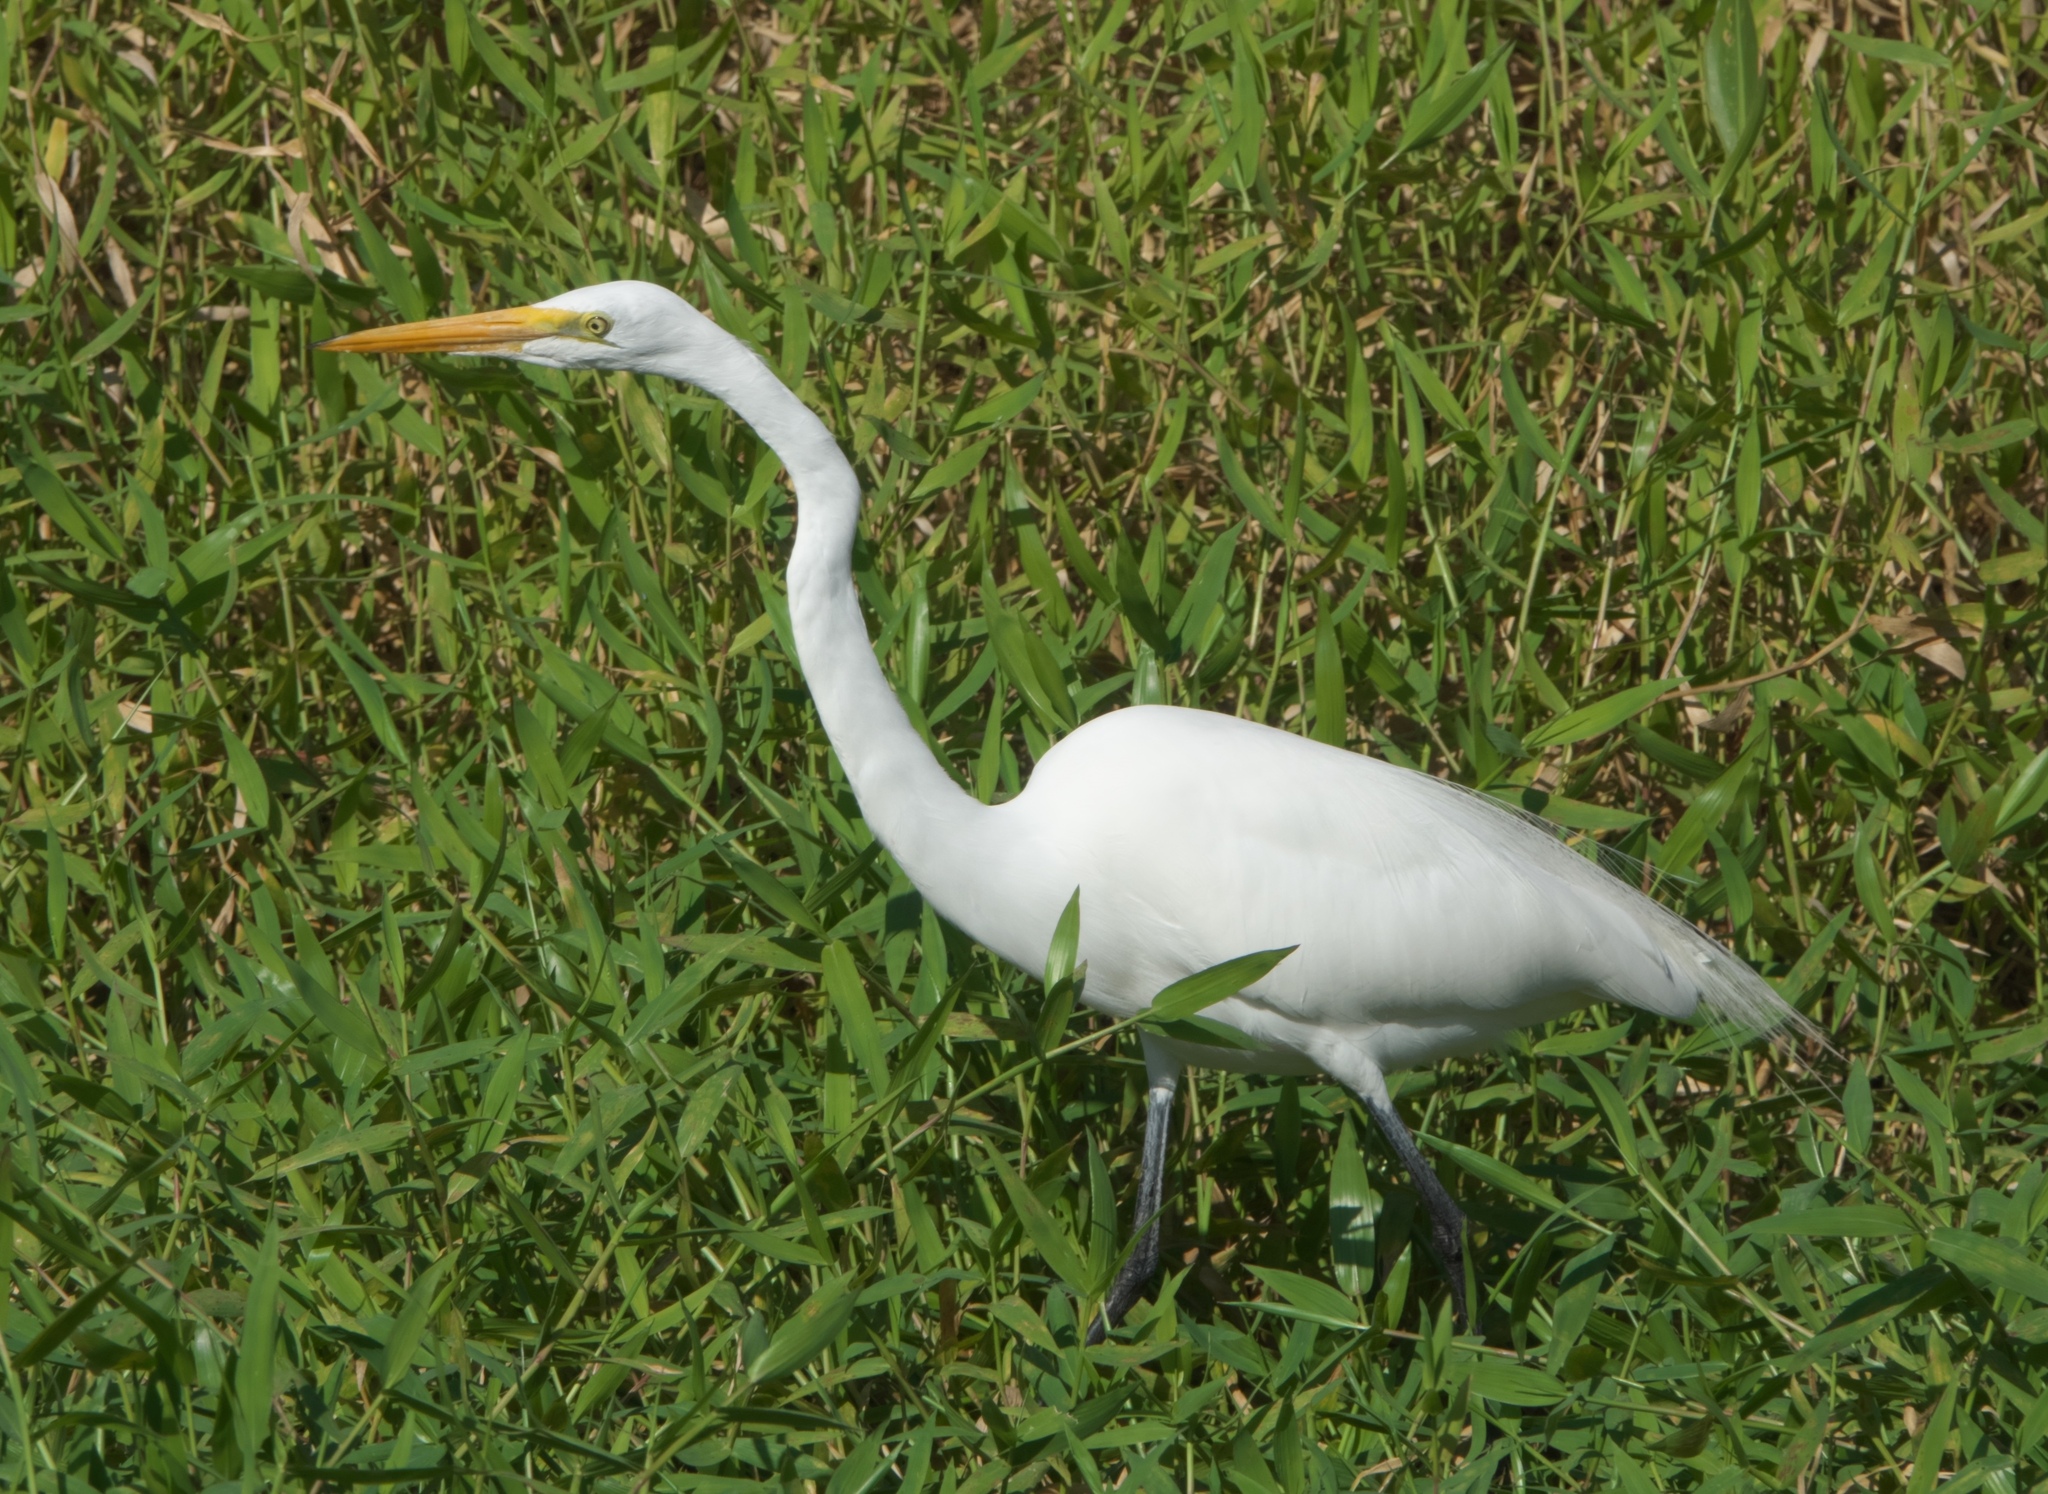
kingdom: Animalia
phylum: Chordata
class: Aves
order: Pelecaniformes
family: Ardeidae
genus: Ardea
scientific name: Ardea alba
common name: Great egret
